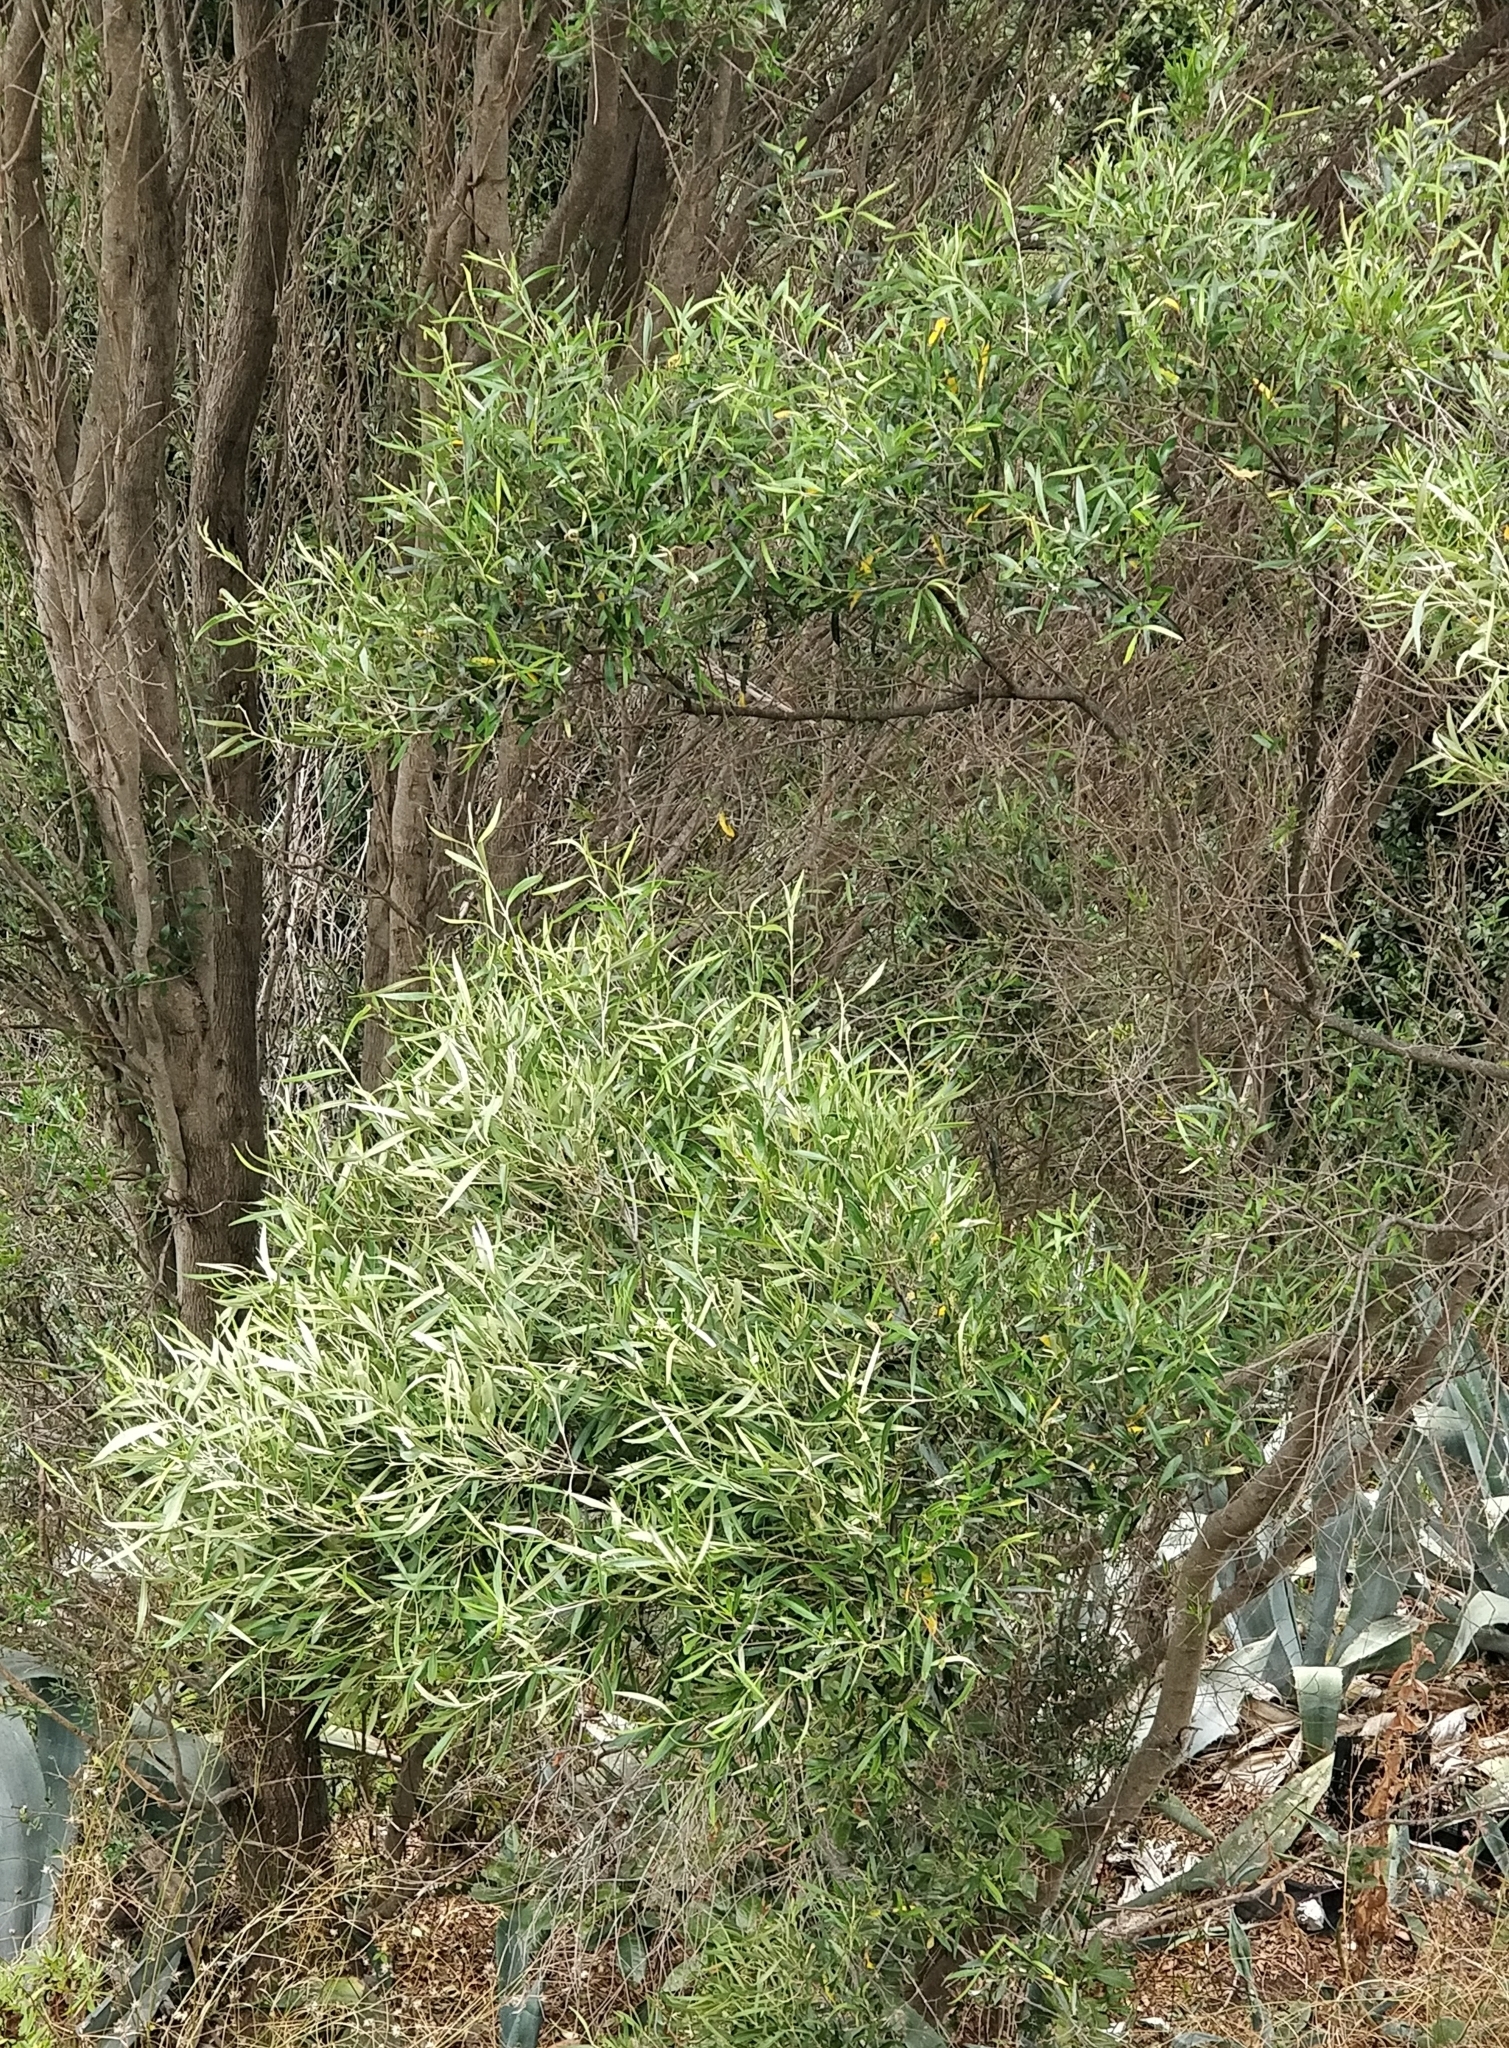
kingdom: Plantae
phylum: Tracheophyta
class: Magnoliopsida
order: Lamiales
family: Oleaceae
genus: Olea
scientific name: Olea europaea
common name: Olive
